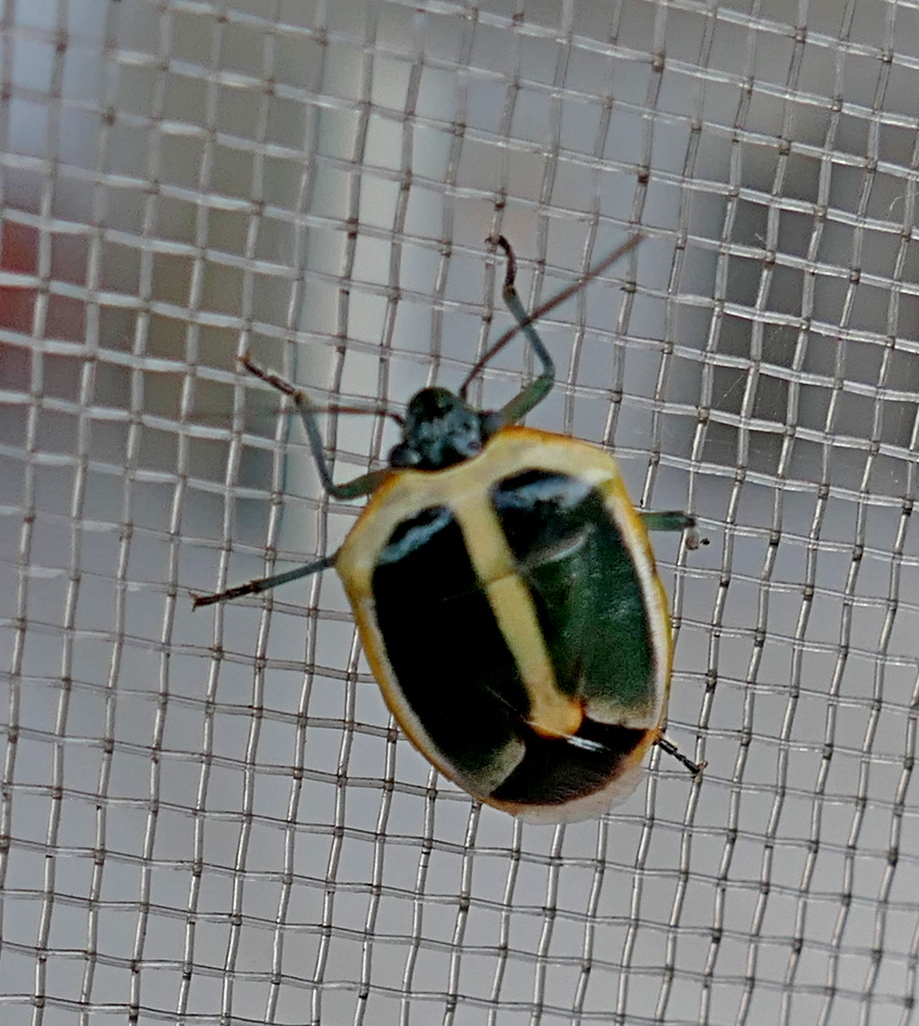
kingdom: Animalia
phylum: Arthropoda
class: Insecta
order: Hemiptera
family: Pentatomidae
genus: Roferta
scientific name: Roferta marginalis
